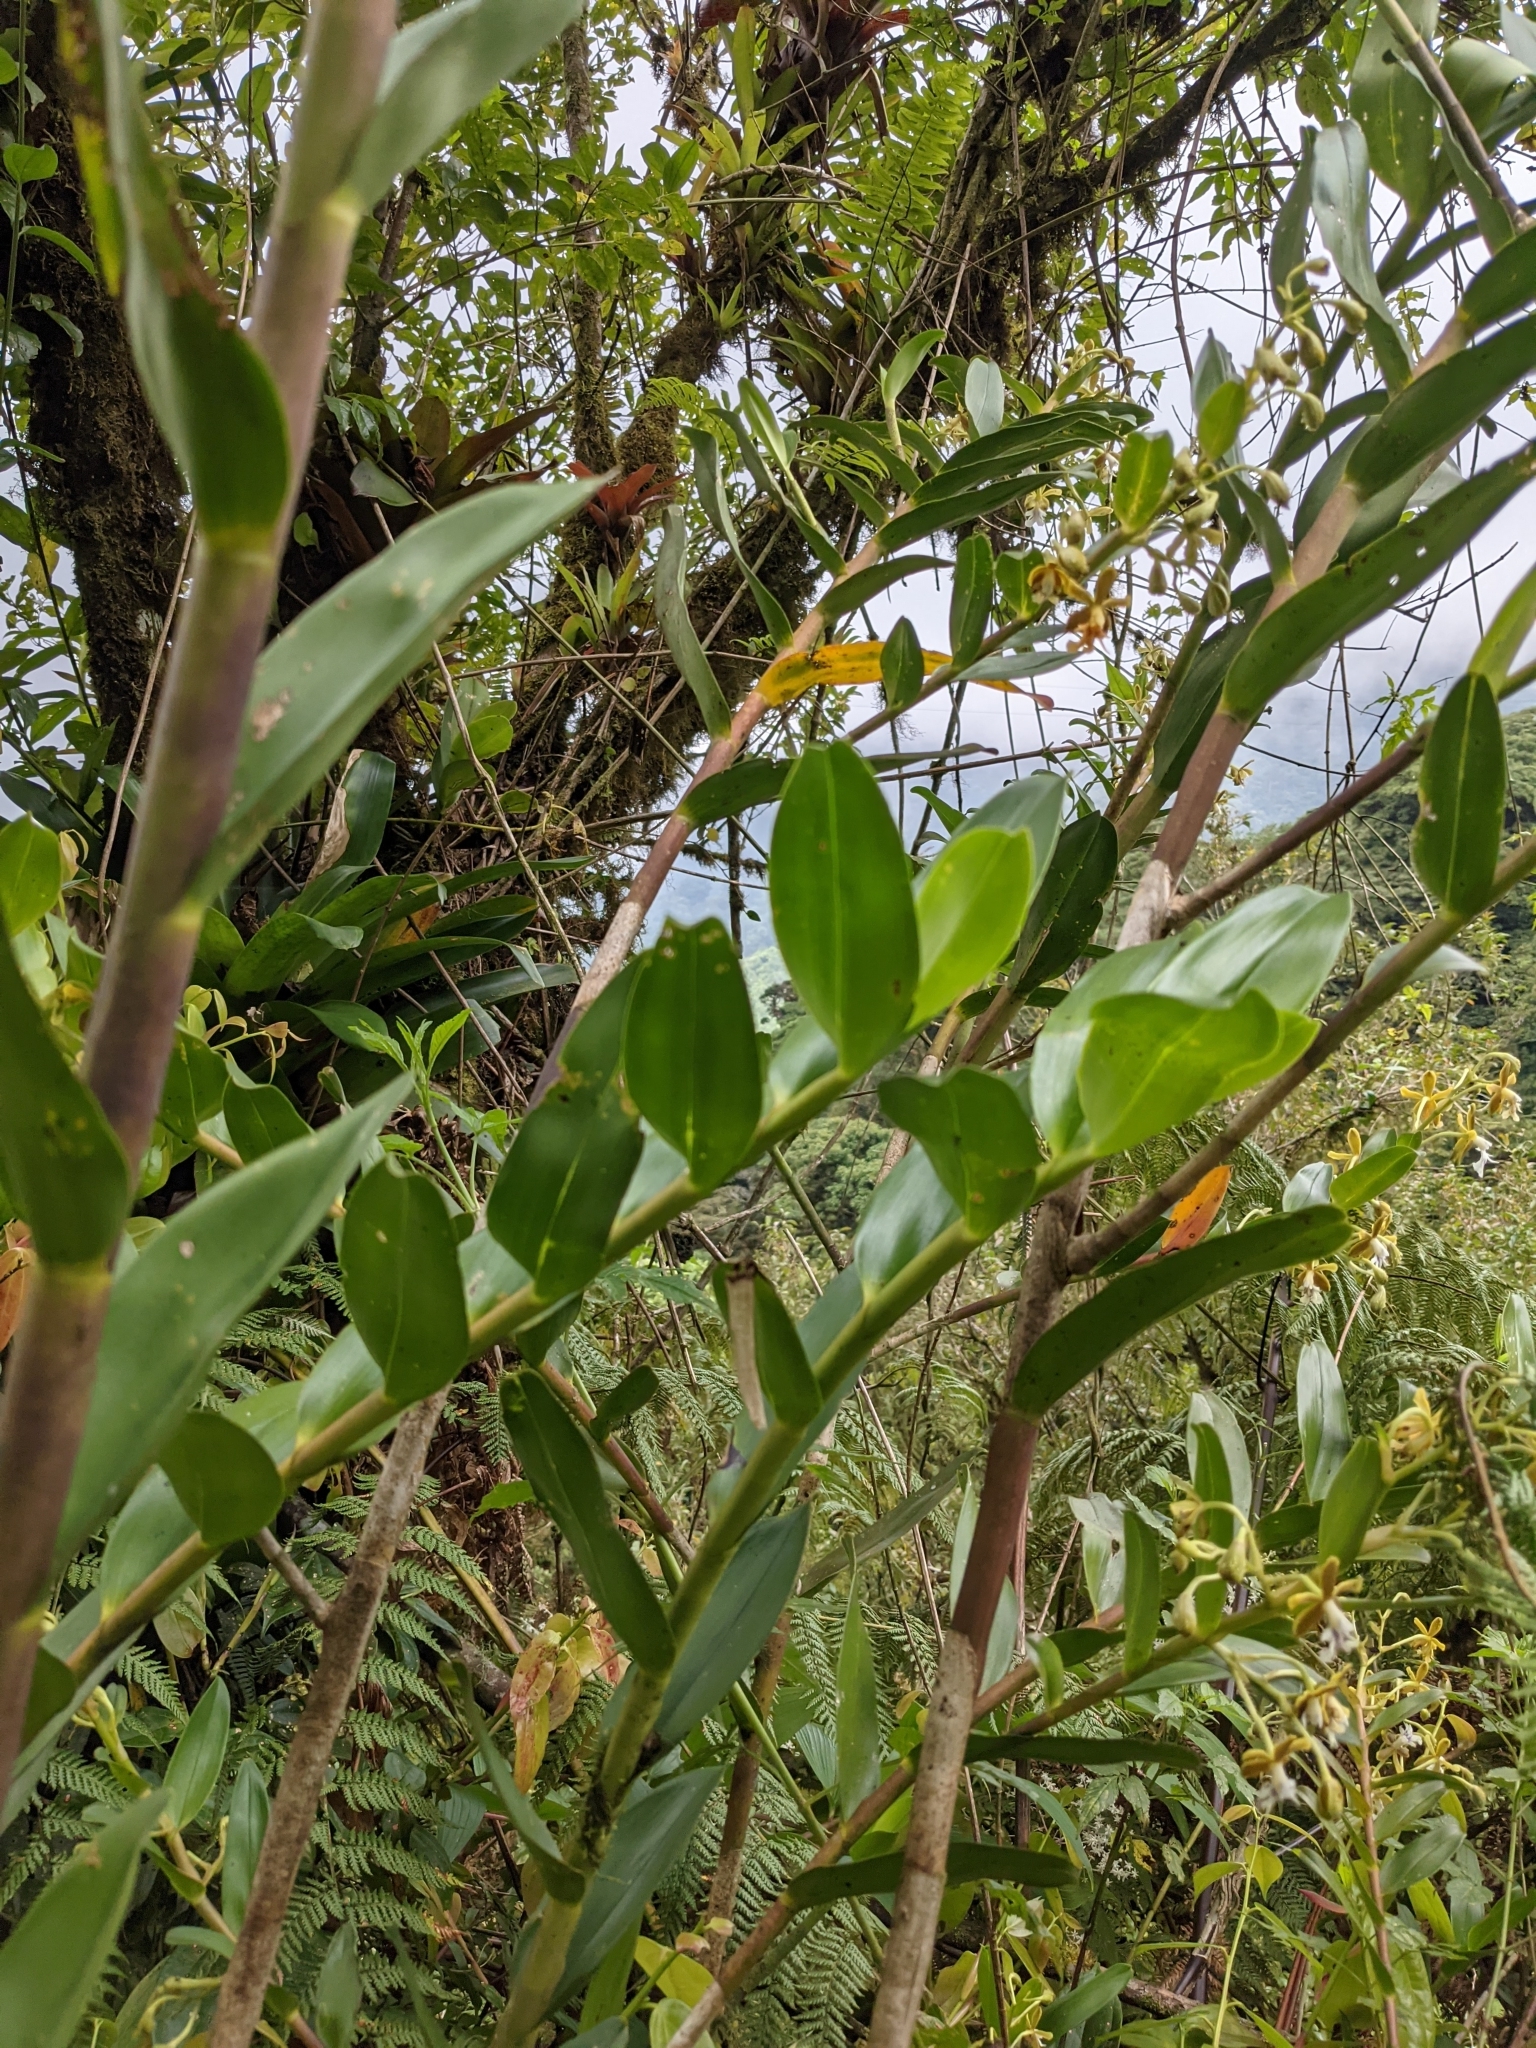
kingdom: Plantae
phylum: Tracheophyta
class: Liliopsida
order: Asparagales
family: Orchidaceae
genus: Epidendrum
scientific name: Epidendrum exasperatum
